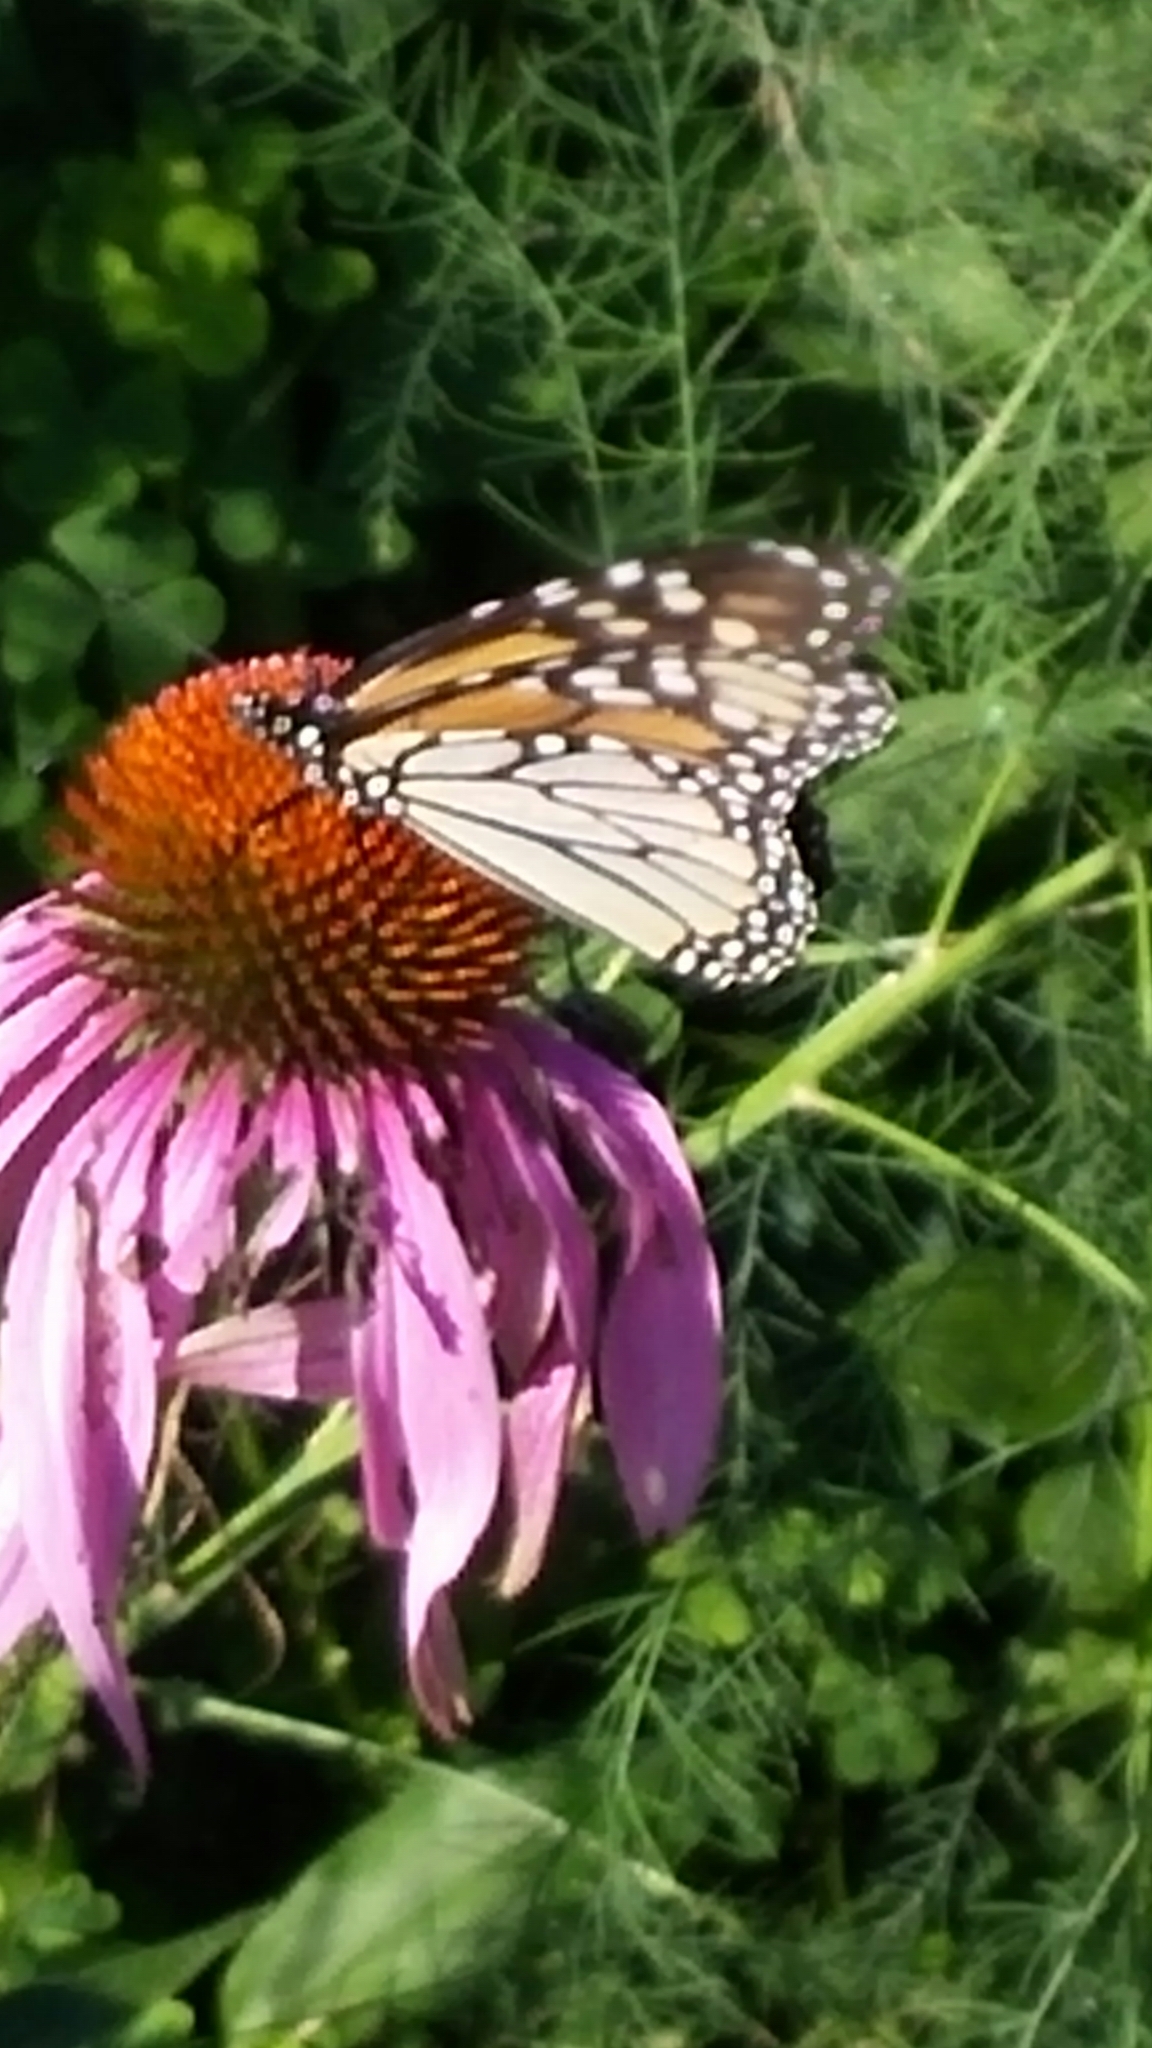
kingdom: Animalia
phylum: Arthropoda
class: Insecta
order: Lepidoptera
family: Nymphalidae
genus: Danaus
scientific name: Danaus plexippus
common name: Monarch
